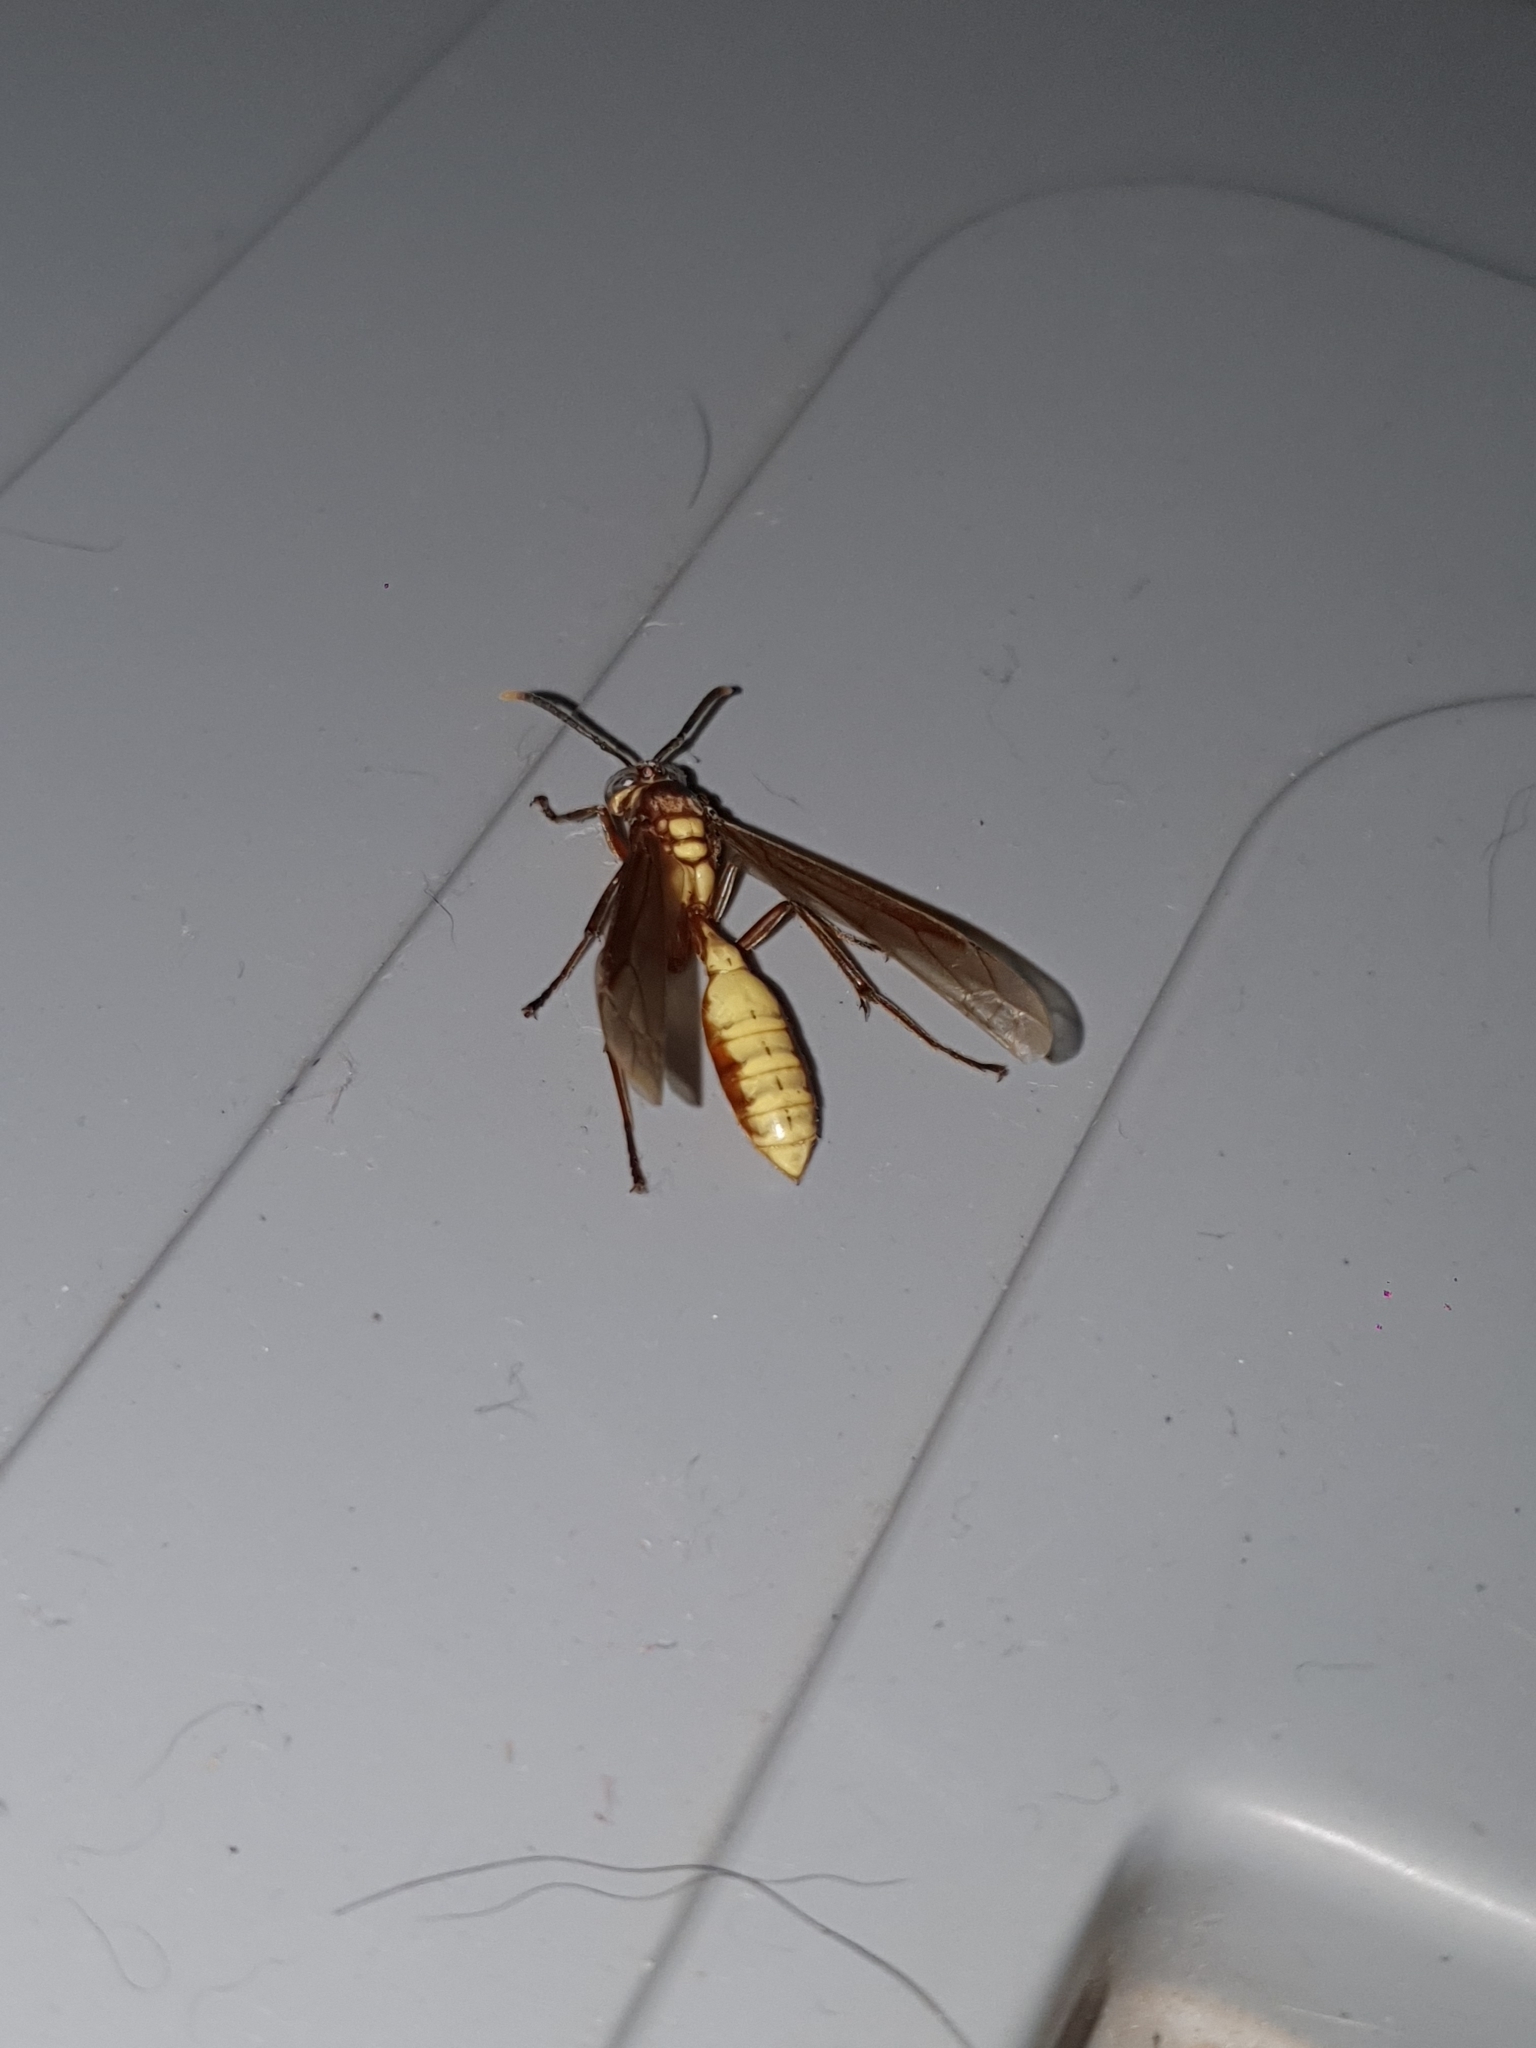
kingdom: Animalia
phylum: Arthropoda
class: Insecta
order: Hymenoptera
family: Vespidae
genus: Apoica
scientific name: Apoica gelida
